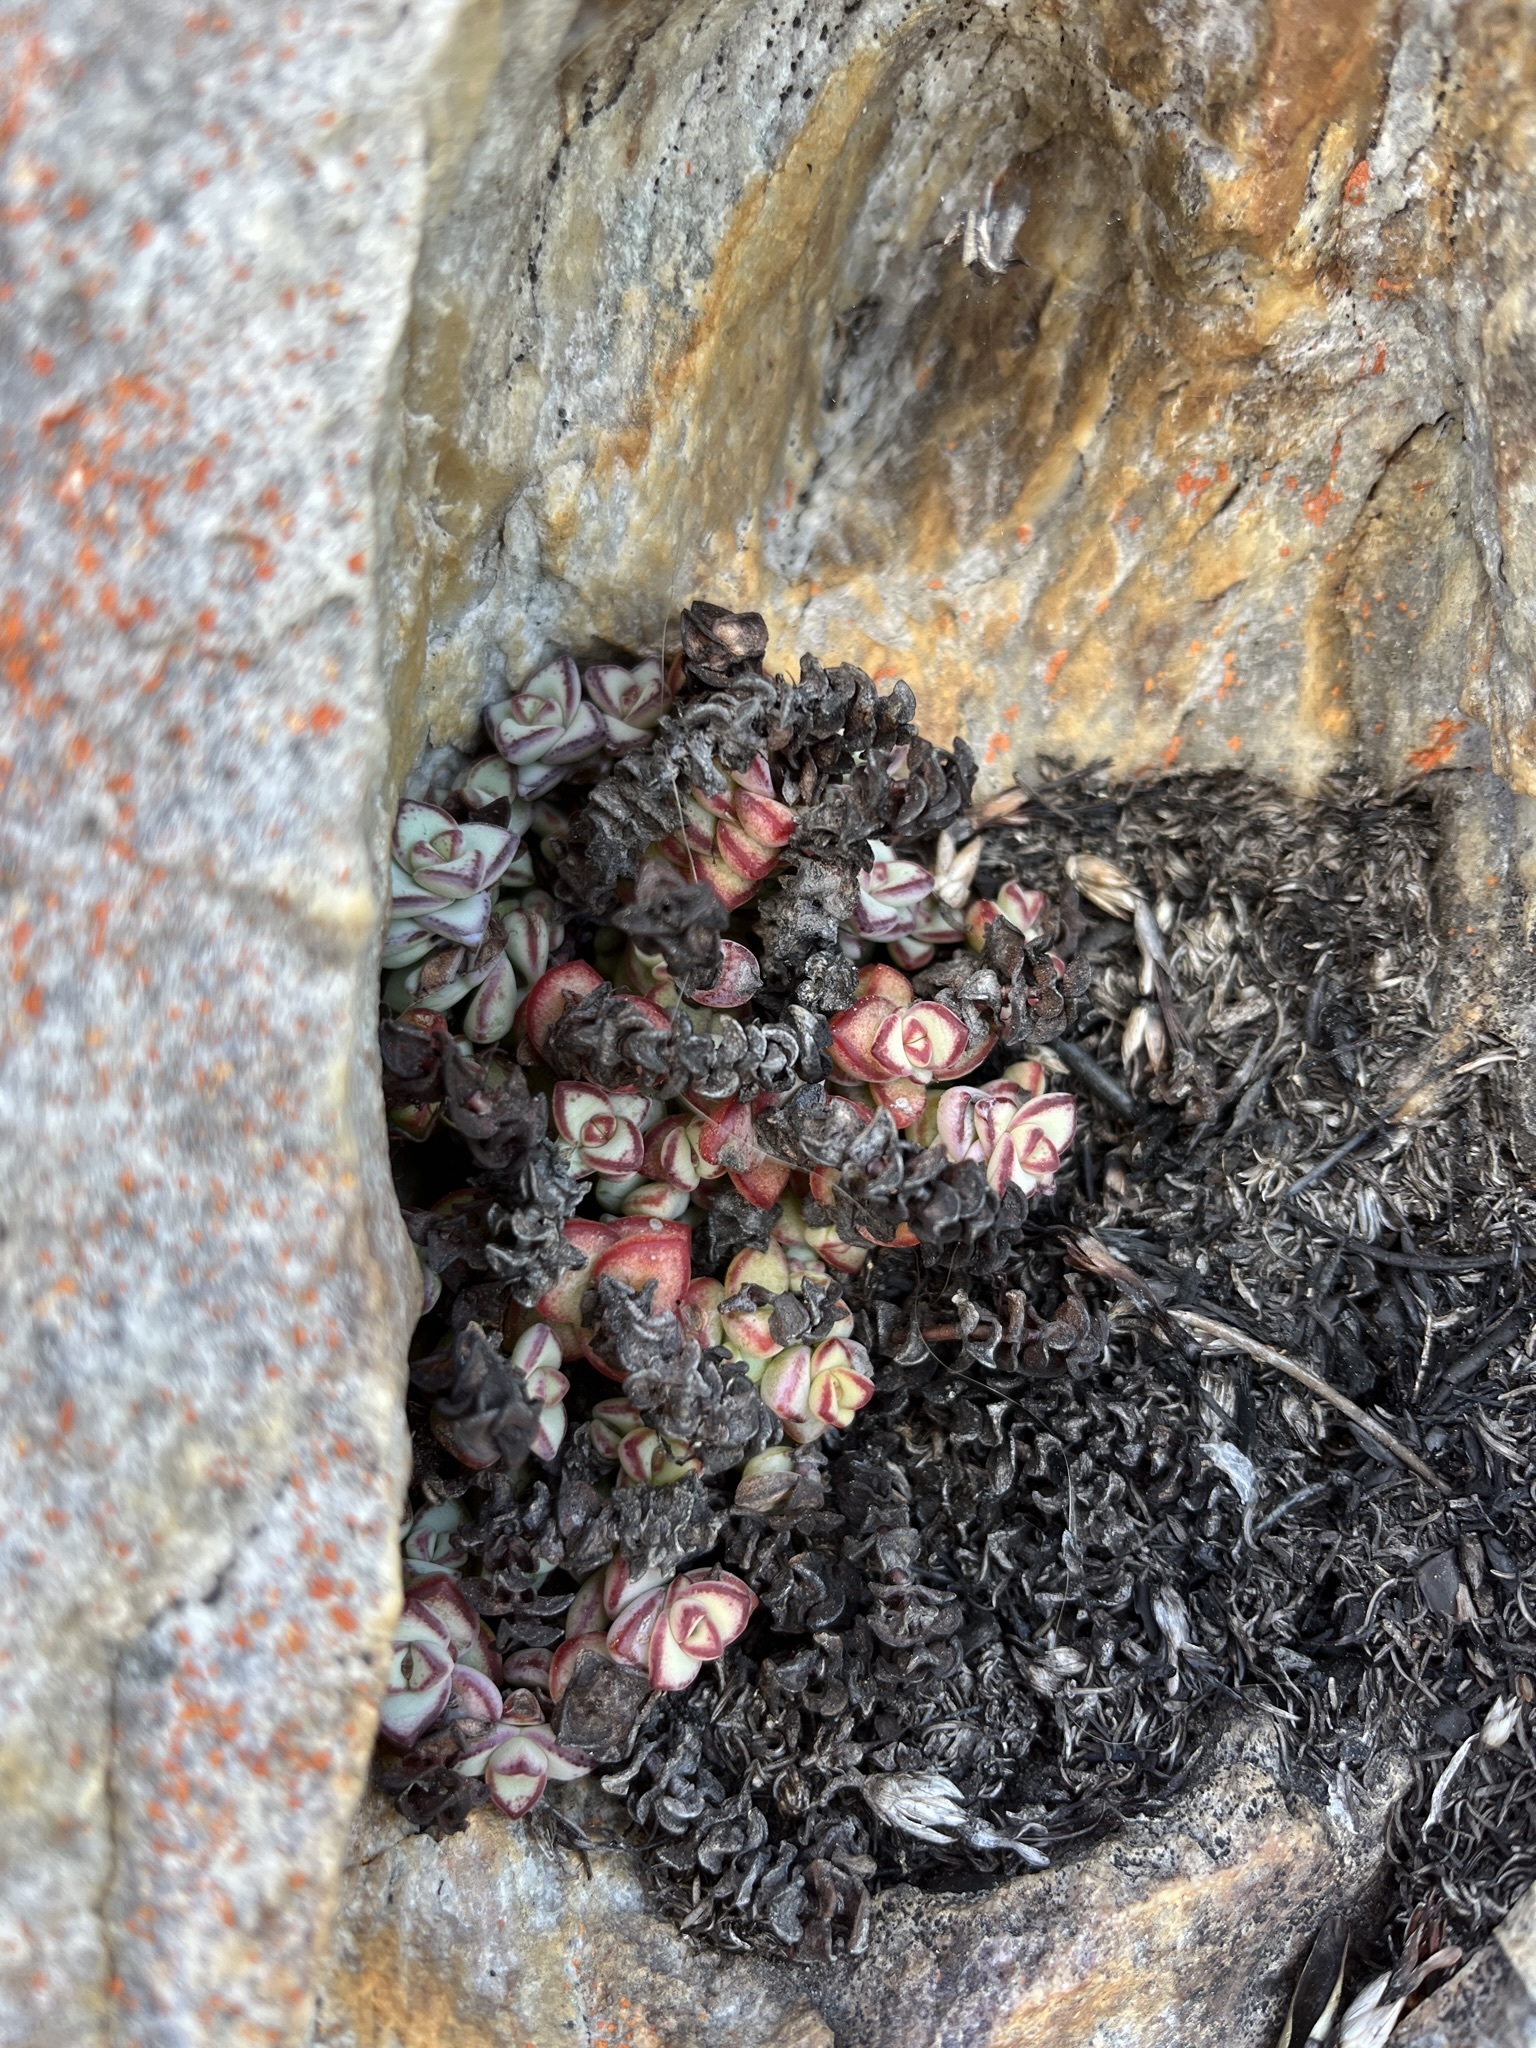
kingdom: Plantae
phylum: Tracheophyta
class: Magnoliopsida
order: Saxifragales
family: Crassulaceae
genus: Crassula
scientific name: Crassula rupestris
